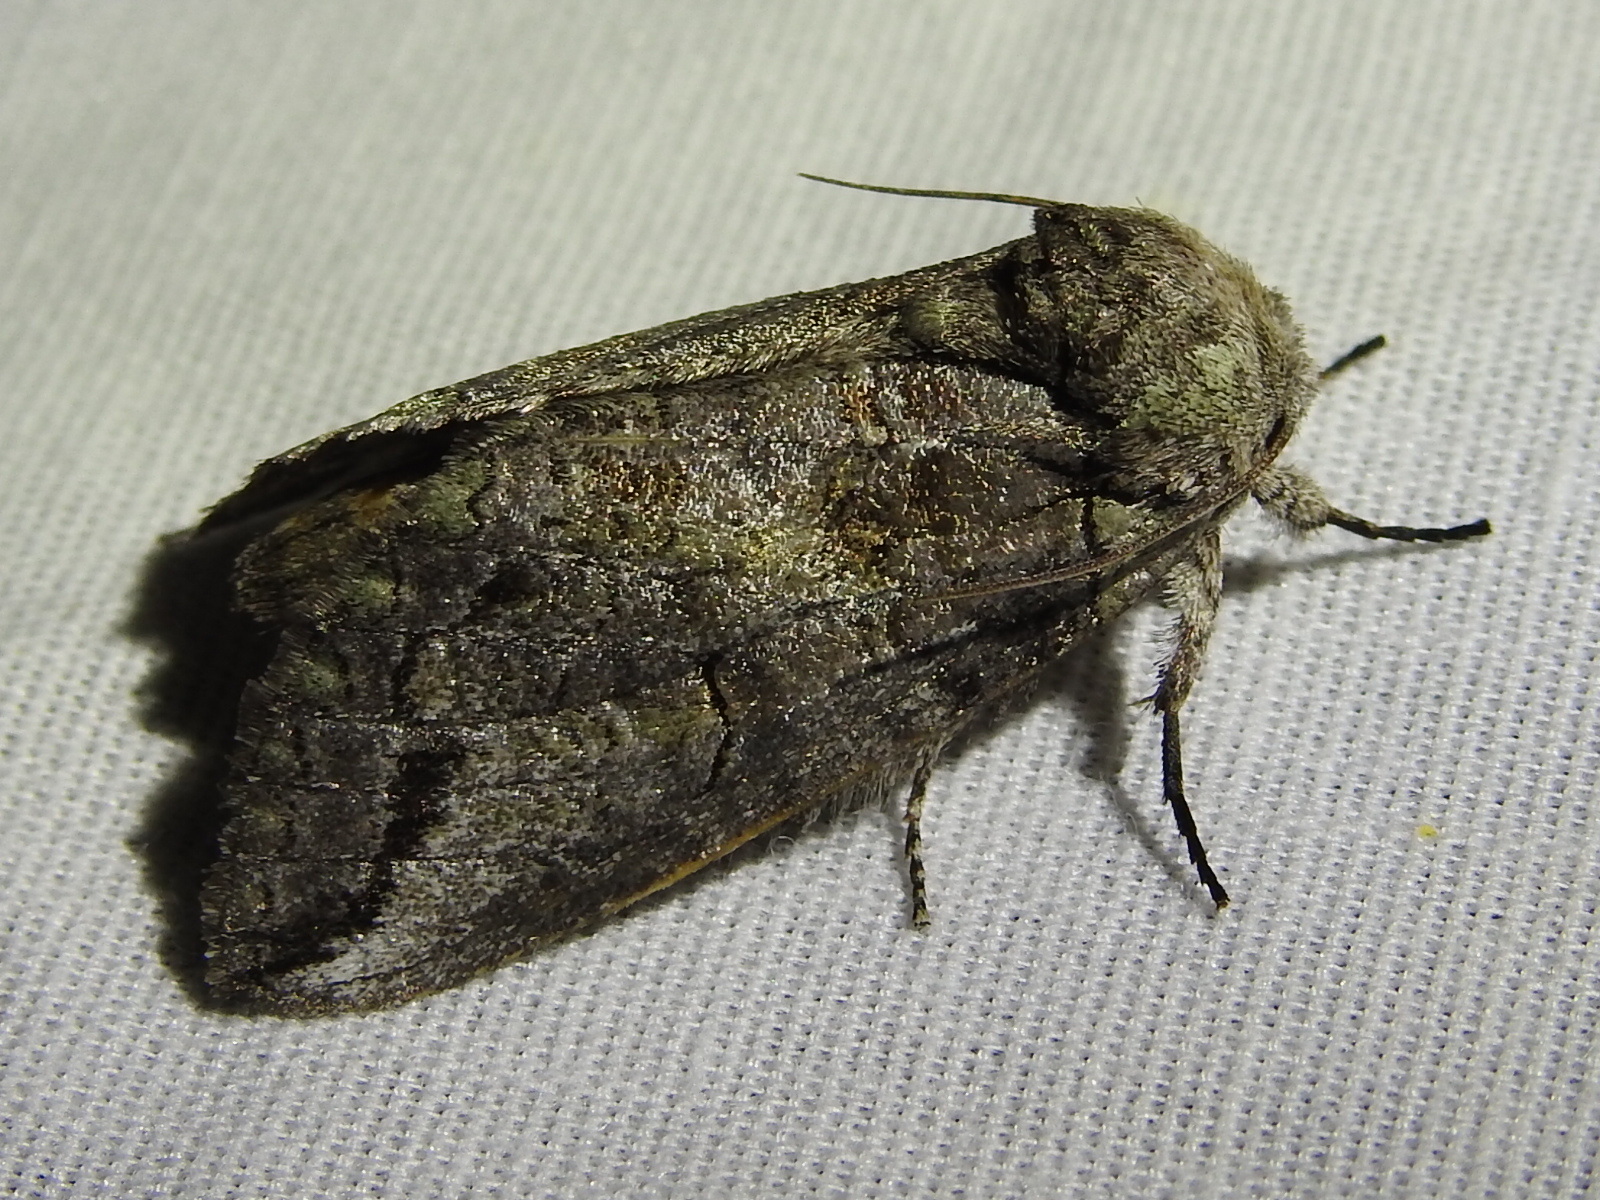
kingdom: Animalia
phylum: Arthropoda
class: Insecta
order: Lepidoptera
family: Notodontidae
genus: Heterocampa
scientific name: Heterocampa astartoides
